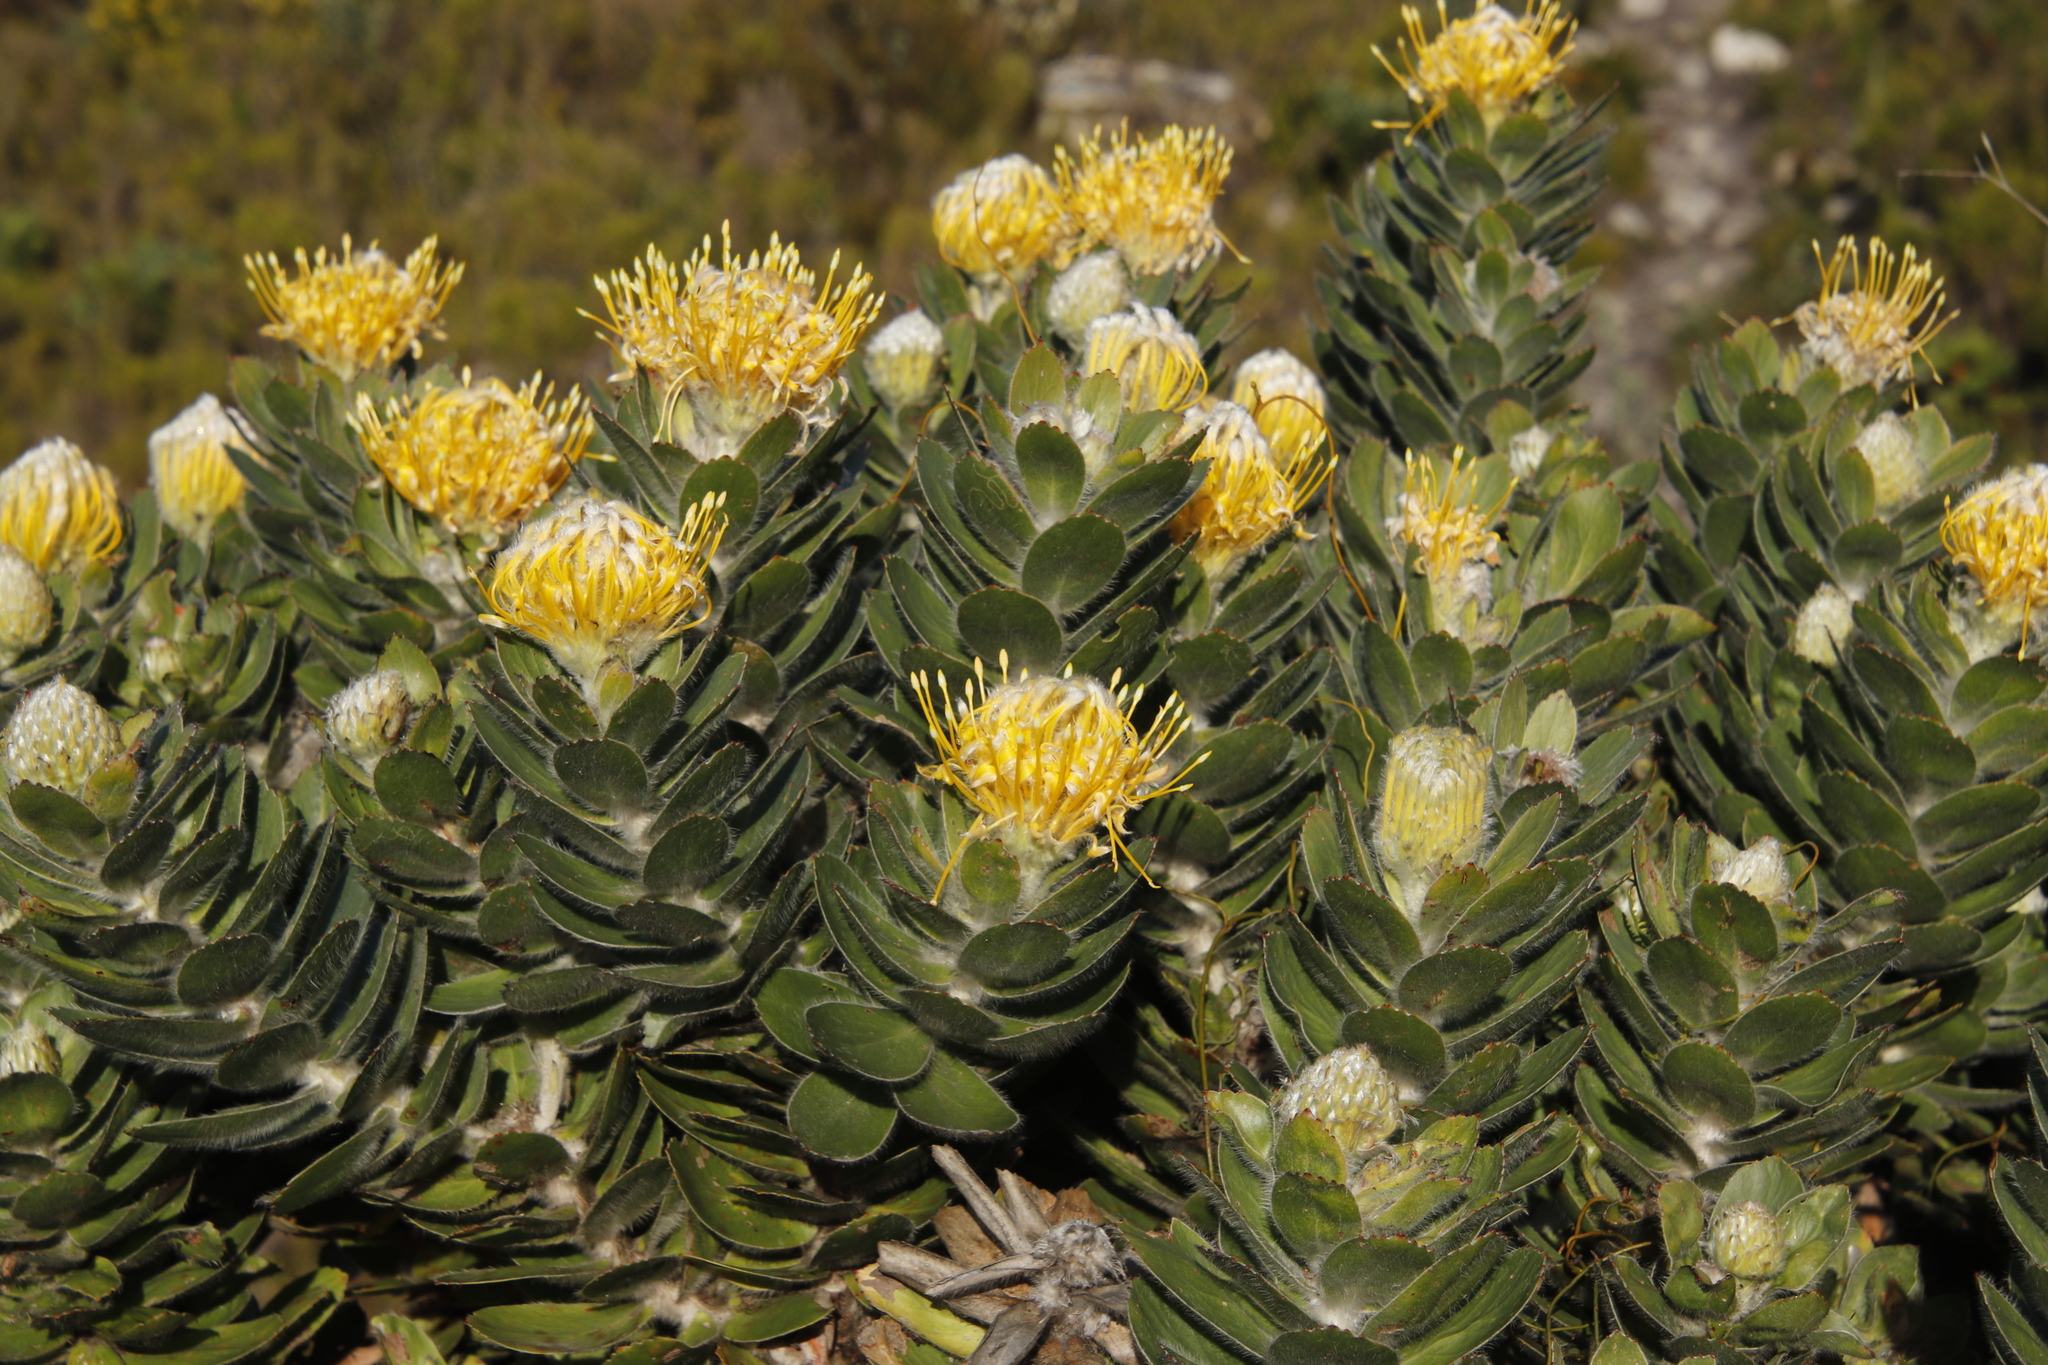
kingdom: Plantae
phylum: Tracheophyta
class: Magnoliopsida
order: Proteales
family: Proteaceae
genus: Leucospermum
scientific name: Leucospermum conocarpodendron
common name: Tree pincushion
